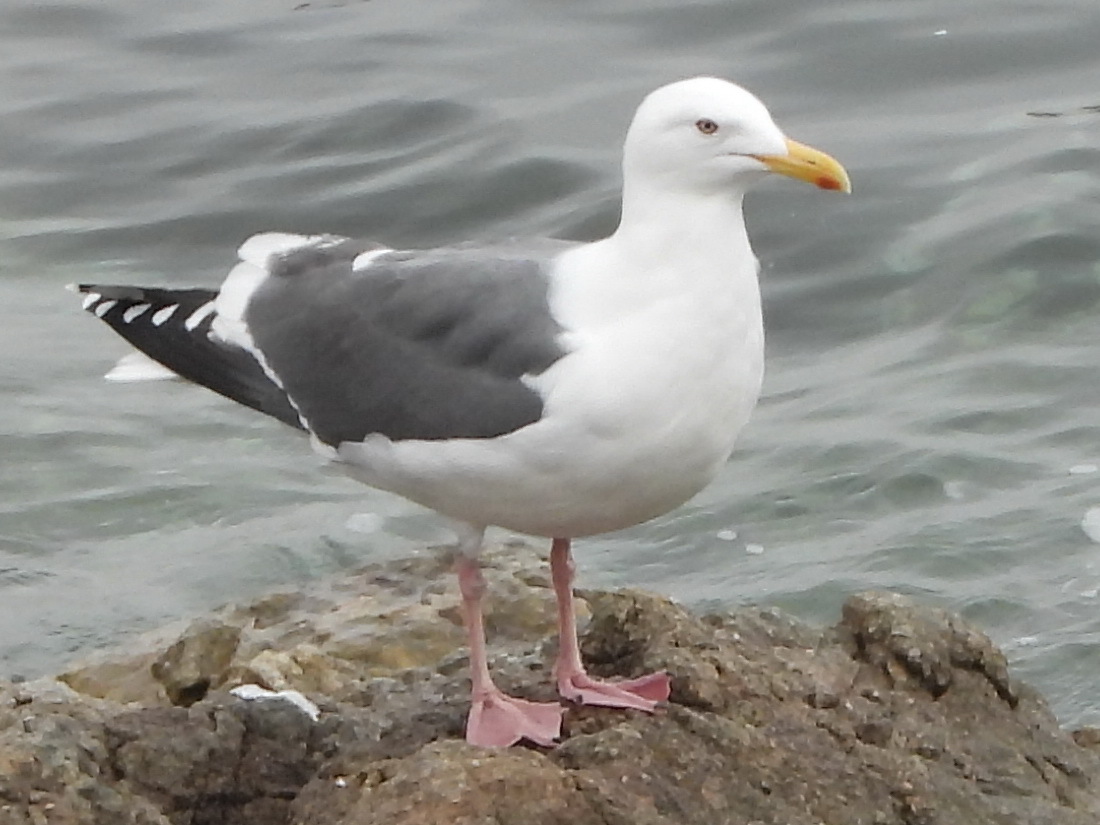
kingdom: Animalia
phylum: Chordata
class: Aves
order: Charadriiformes
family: Laridae
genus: Larus
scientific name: Larus schistisagus
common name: Slaty-backed gull
